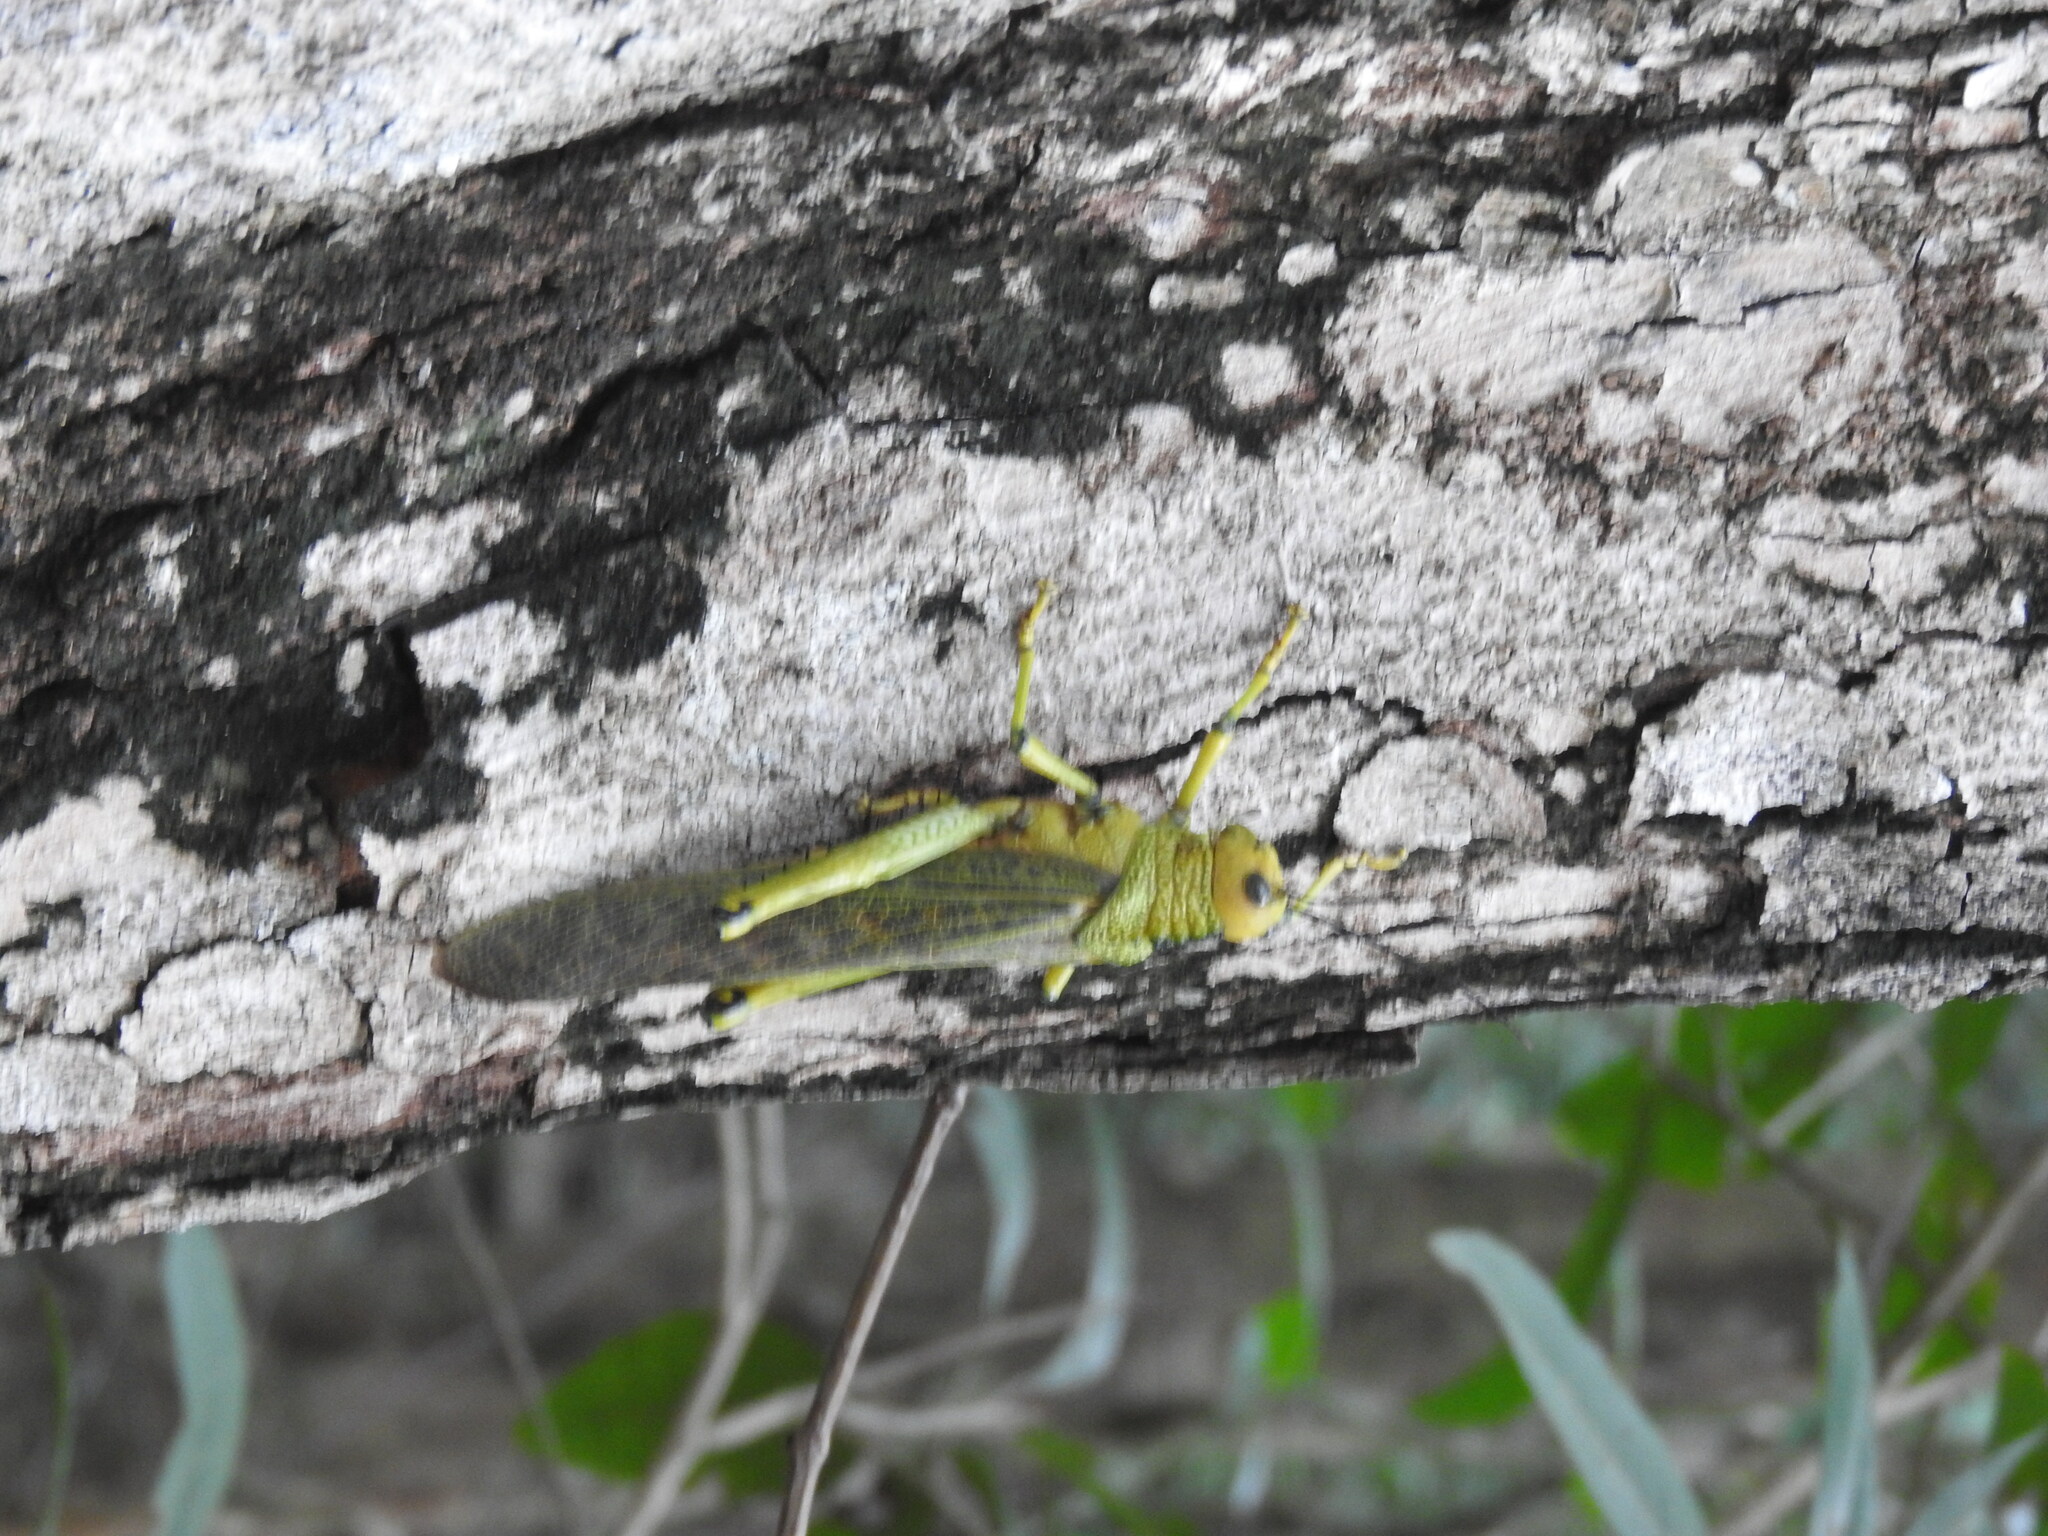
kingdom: Animalia
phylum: Arthropoda
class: Insecta
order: Orthoptera
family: Romaleidae
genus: Tropidacris
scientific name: Tropidacris cristata
